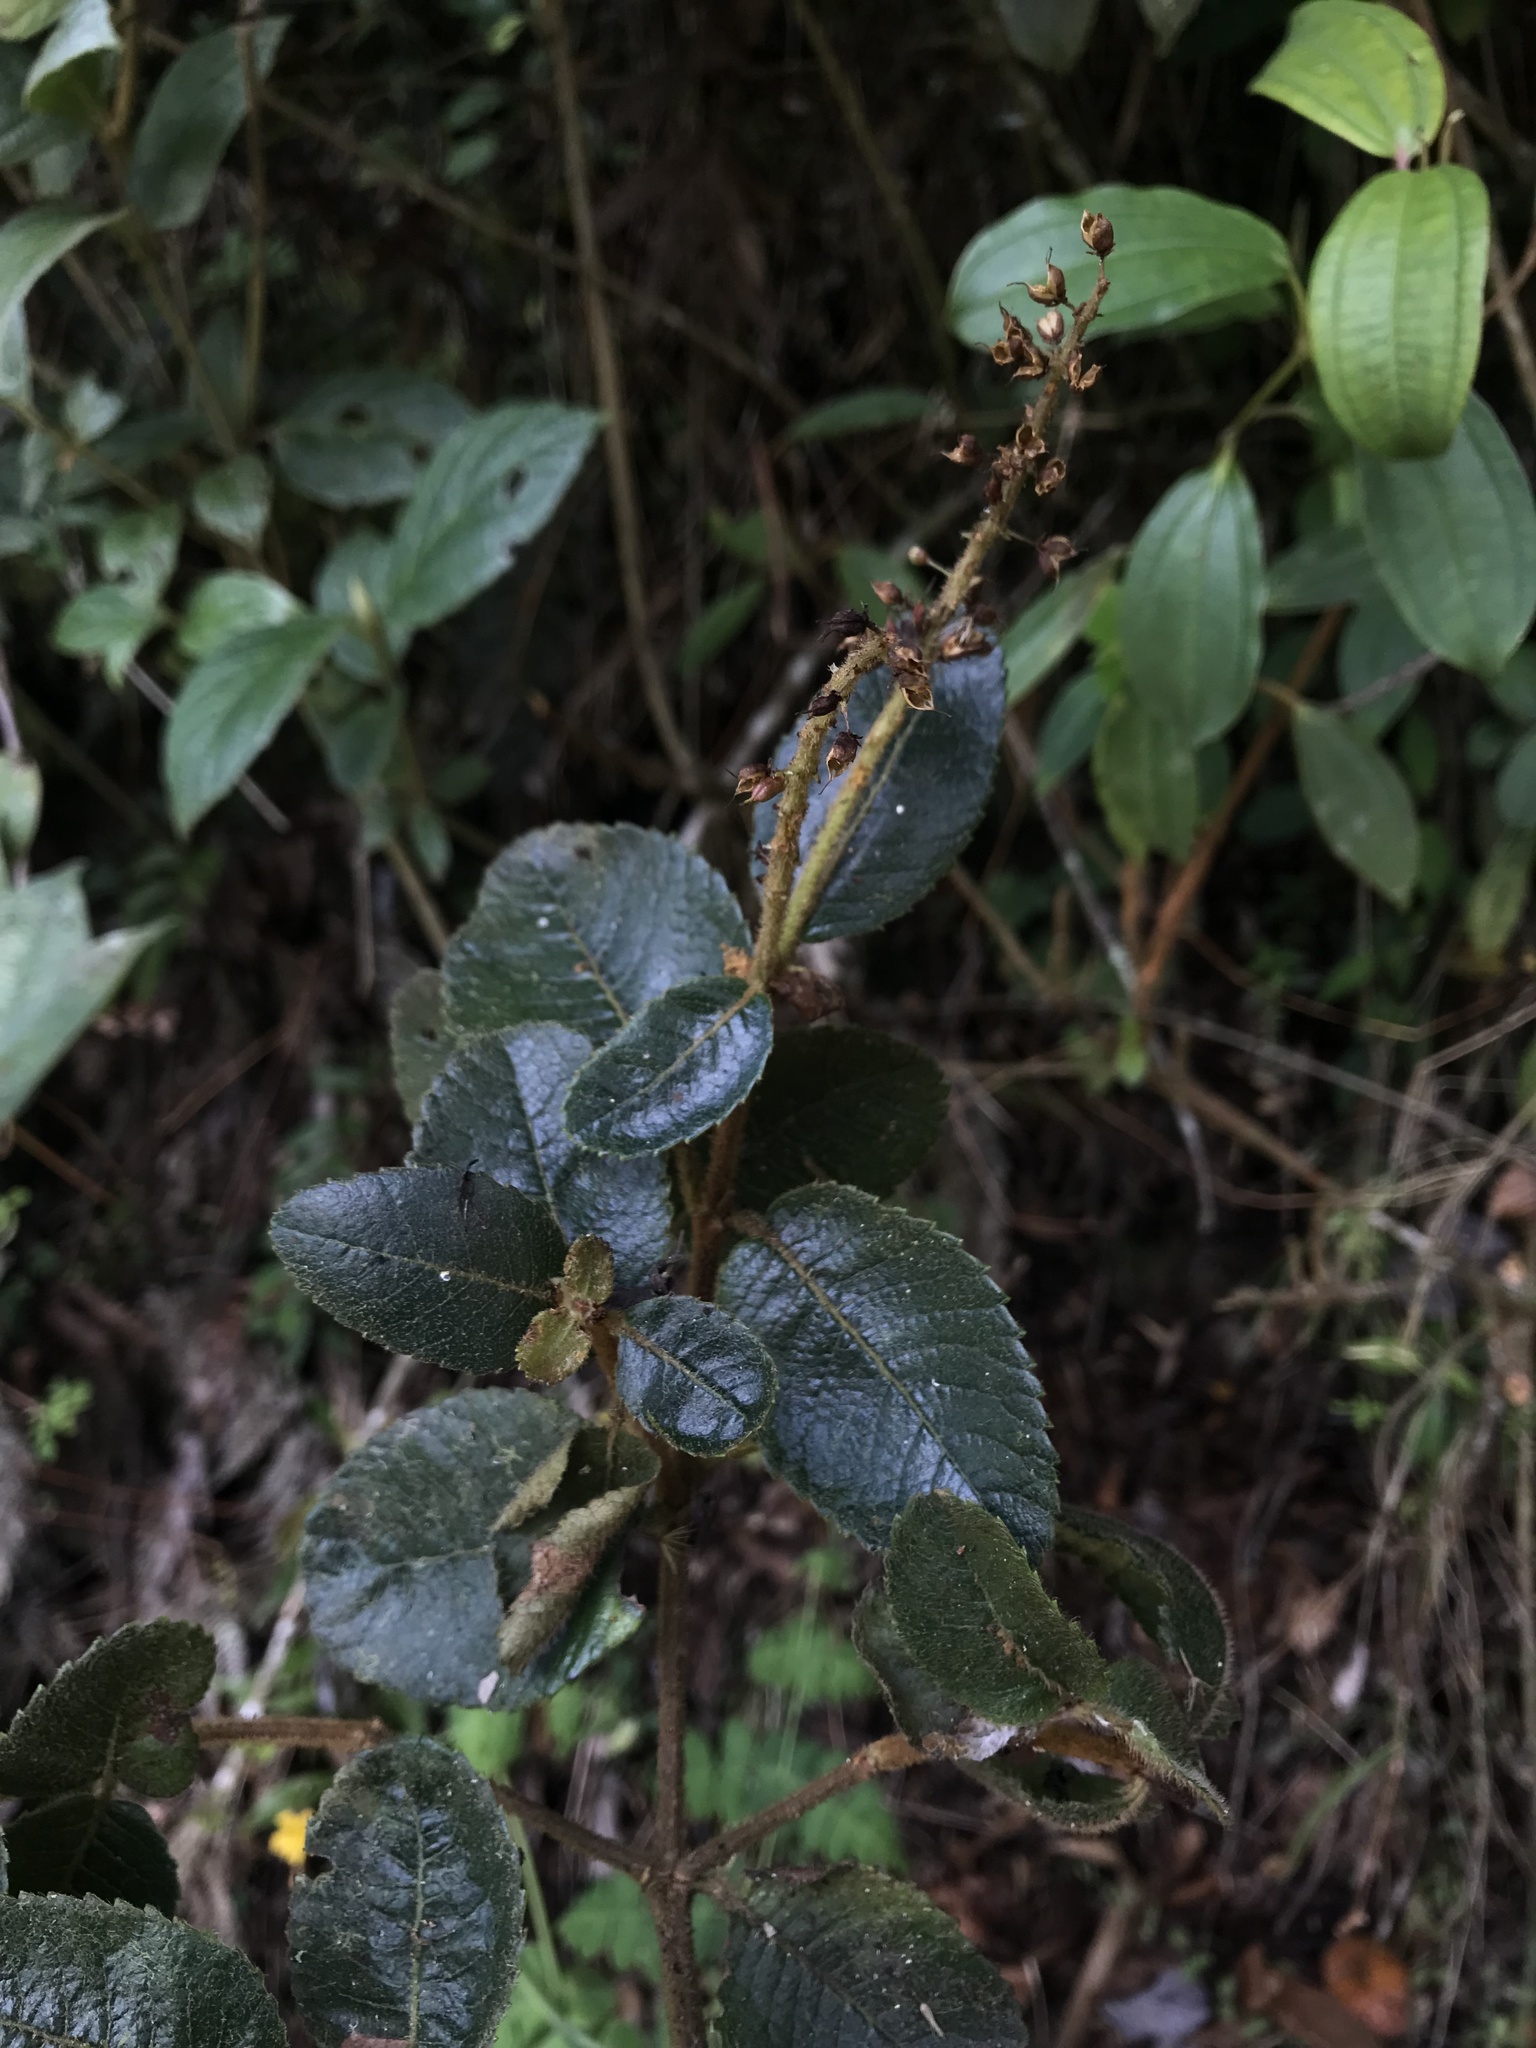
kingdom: Plantae
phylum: Tracheophyta
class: Magnoliopsida
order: Oxalidales
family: Cunoniaceae
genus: Weinmannia
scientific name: Weinmannia rollottii
